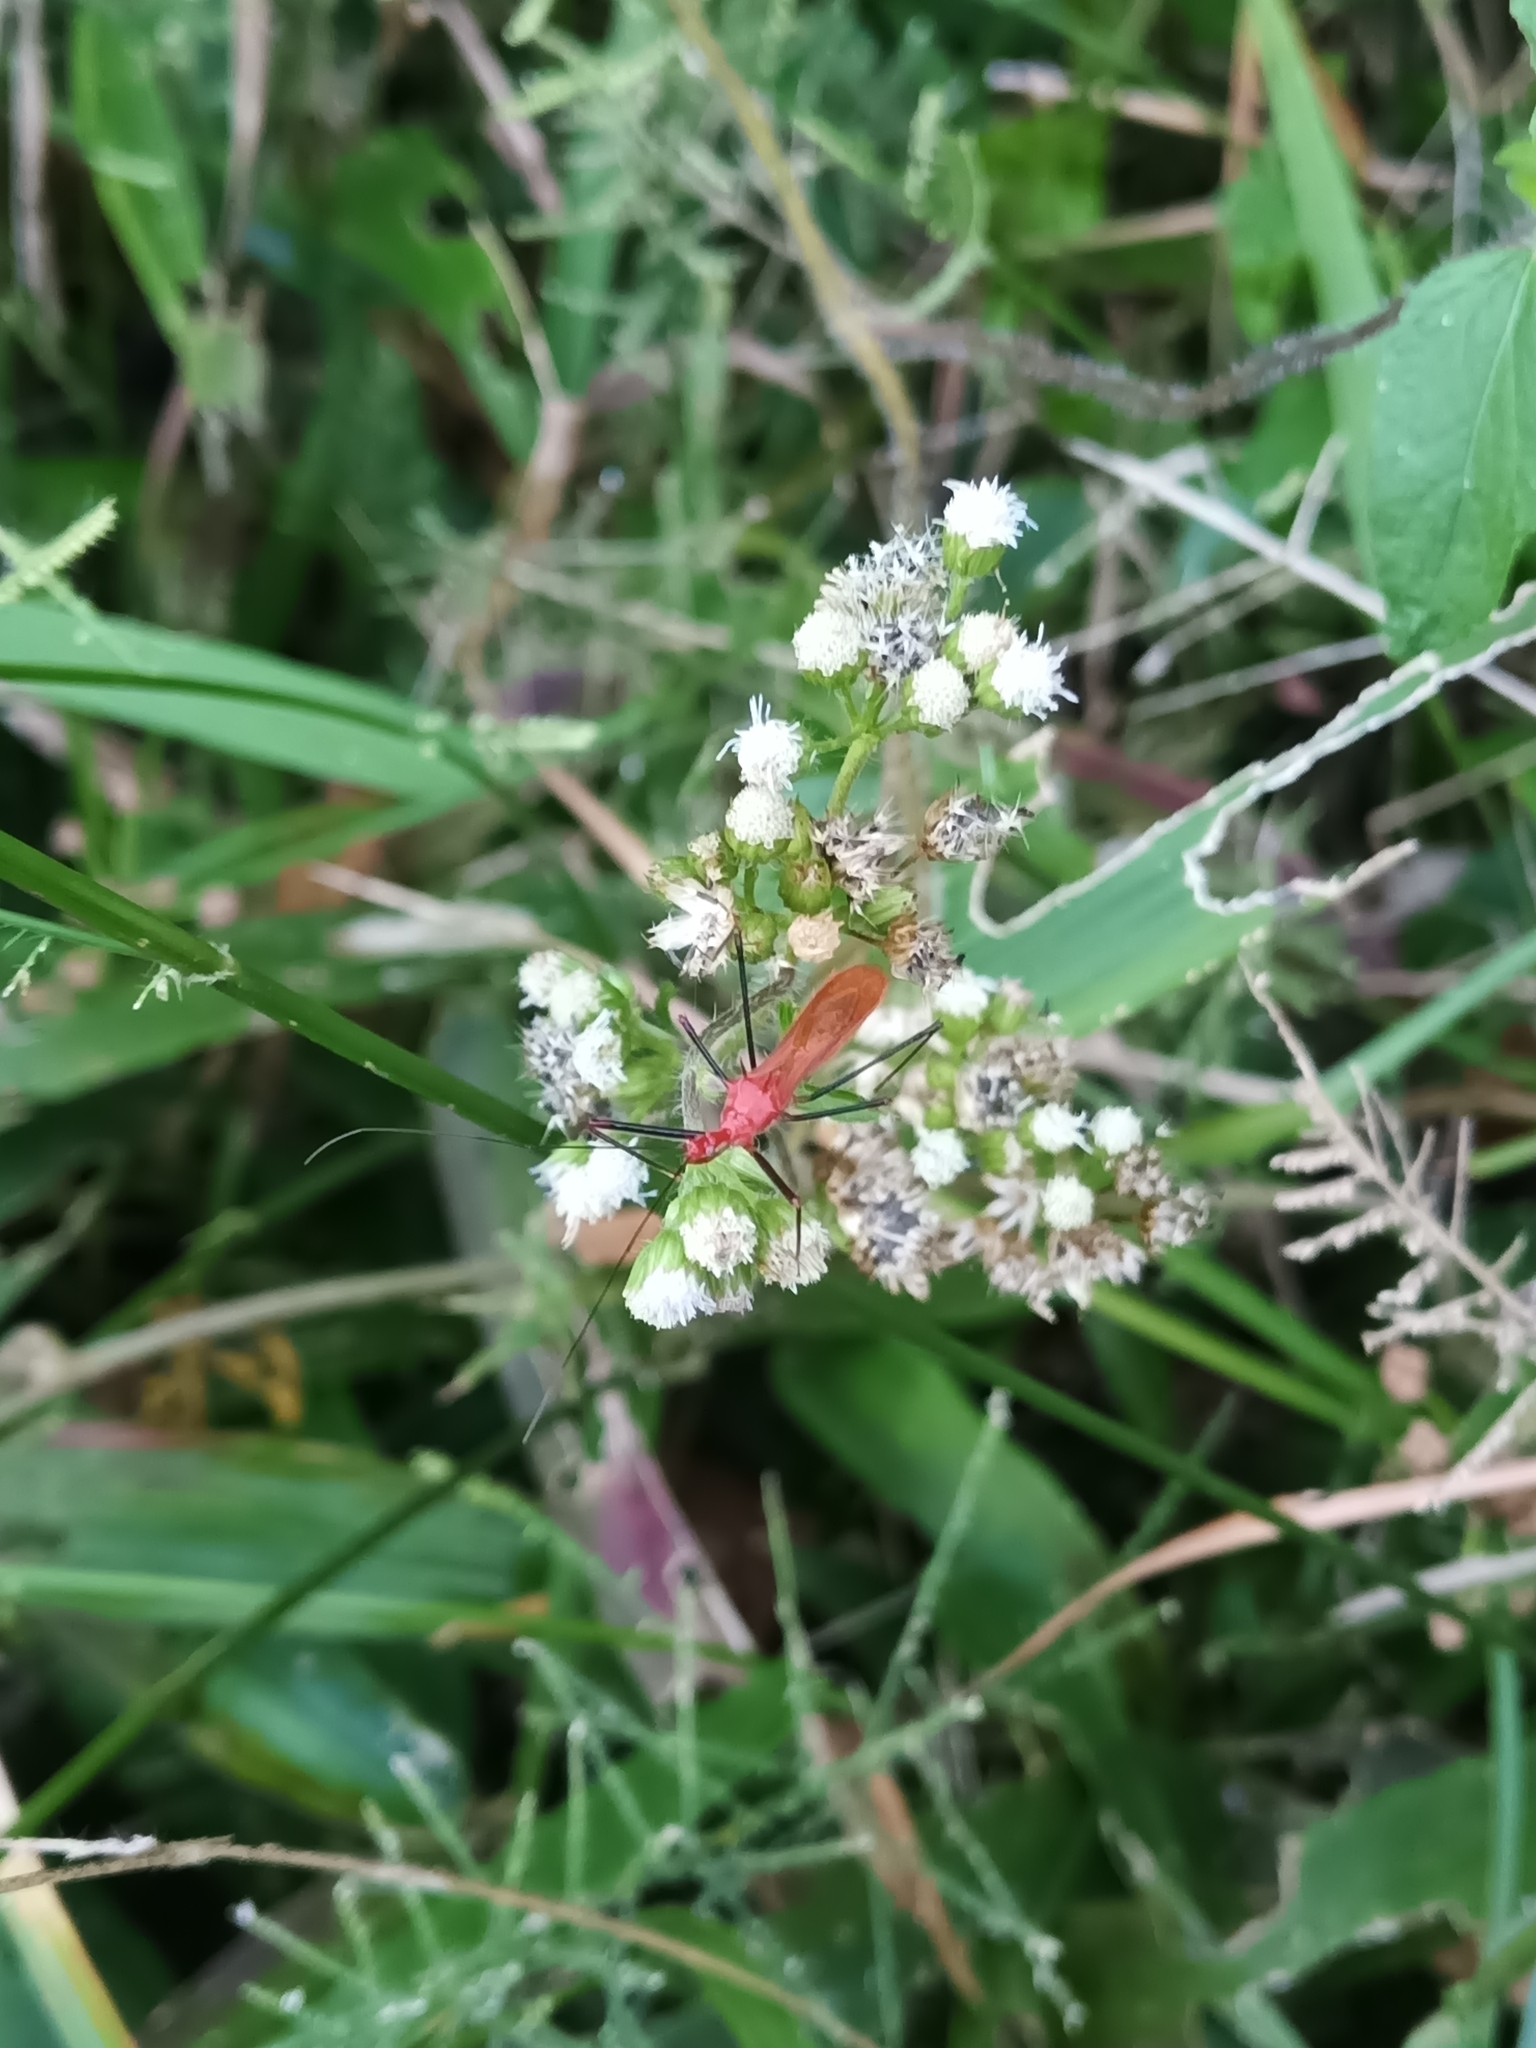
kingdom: Animalia
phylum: Arthropoda
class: Insecta
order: Hemiptera
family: Reduviidae
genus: Ricolla
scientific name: Ricolla quadrispinosa
